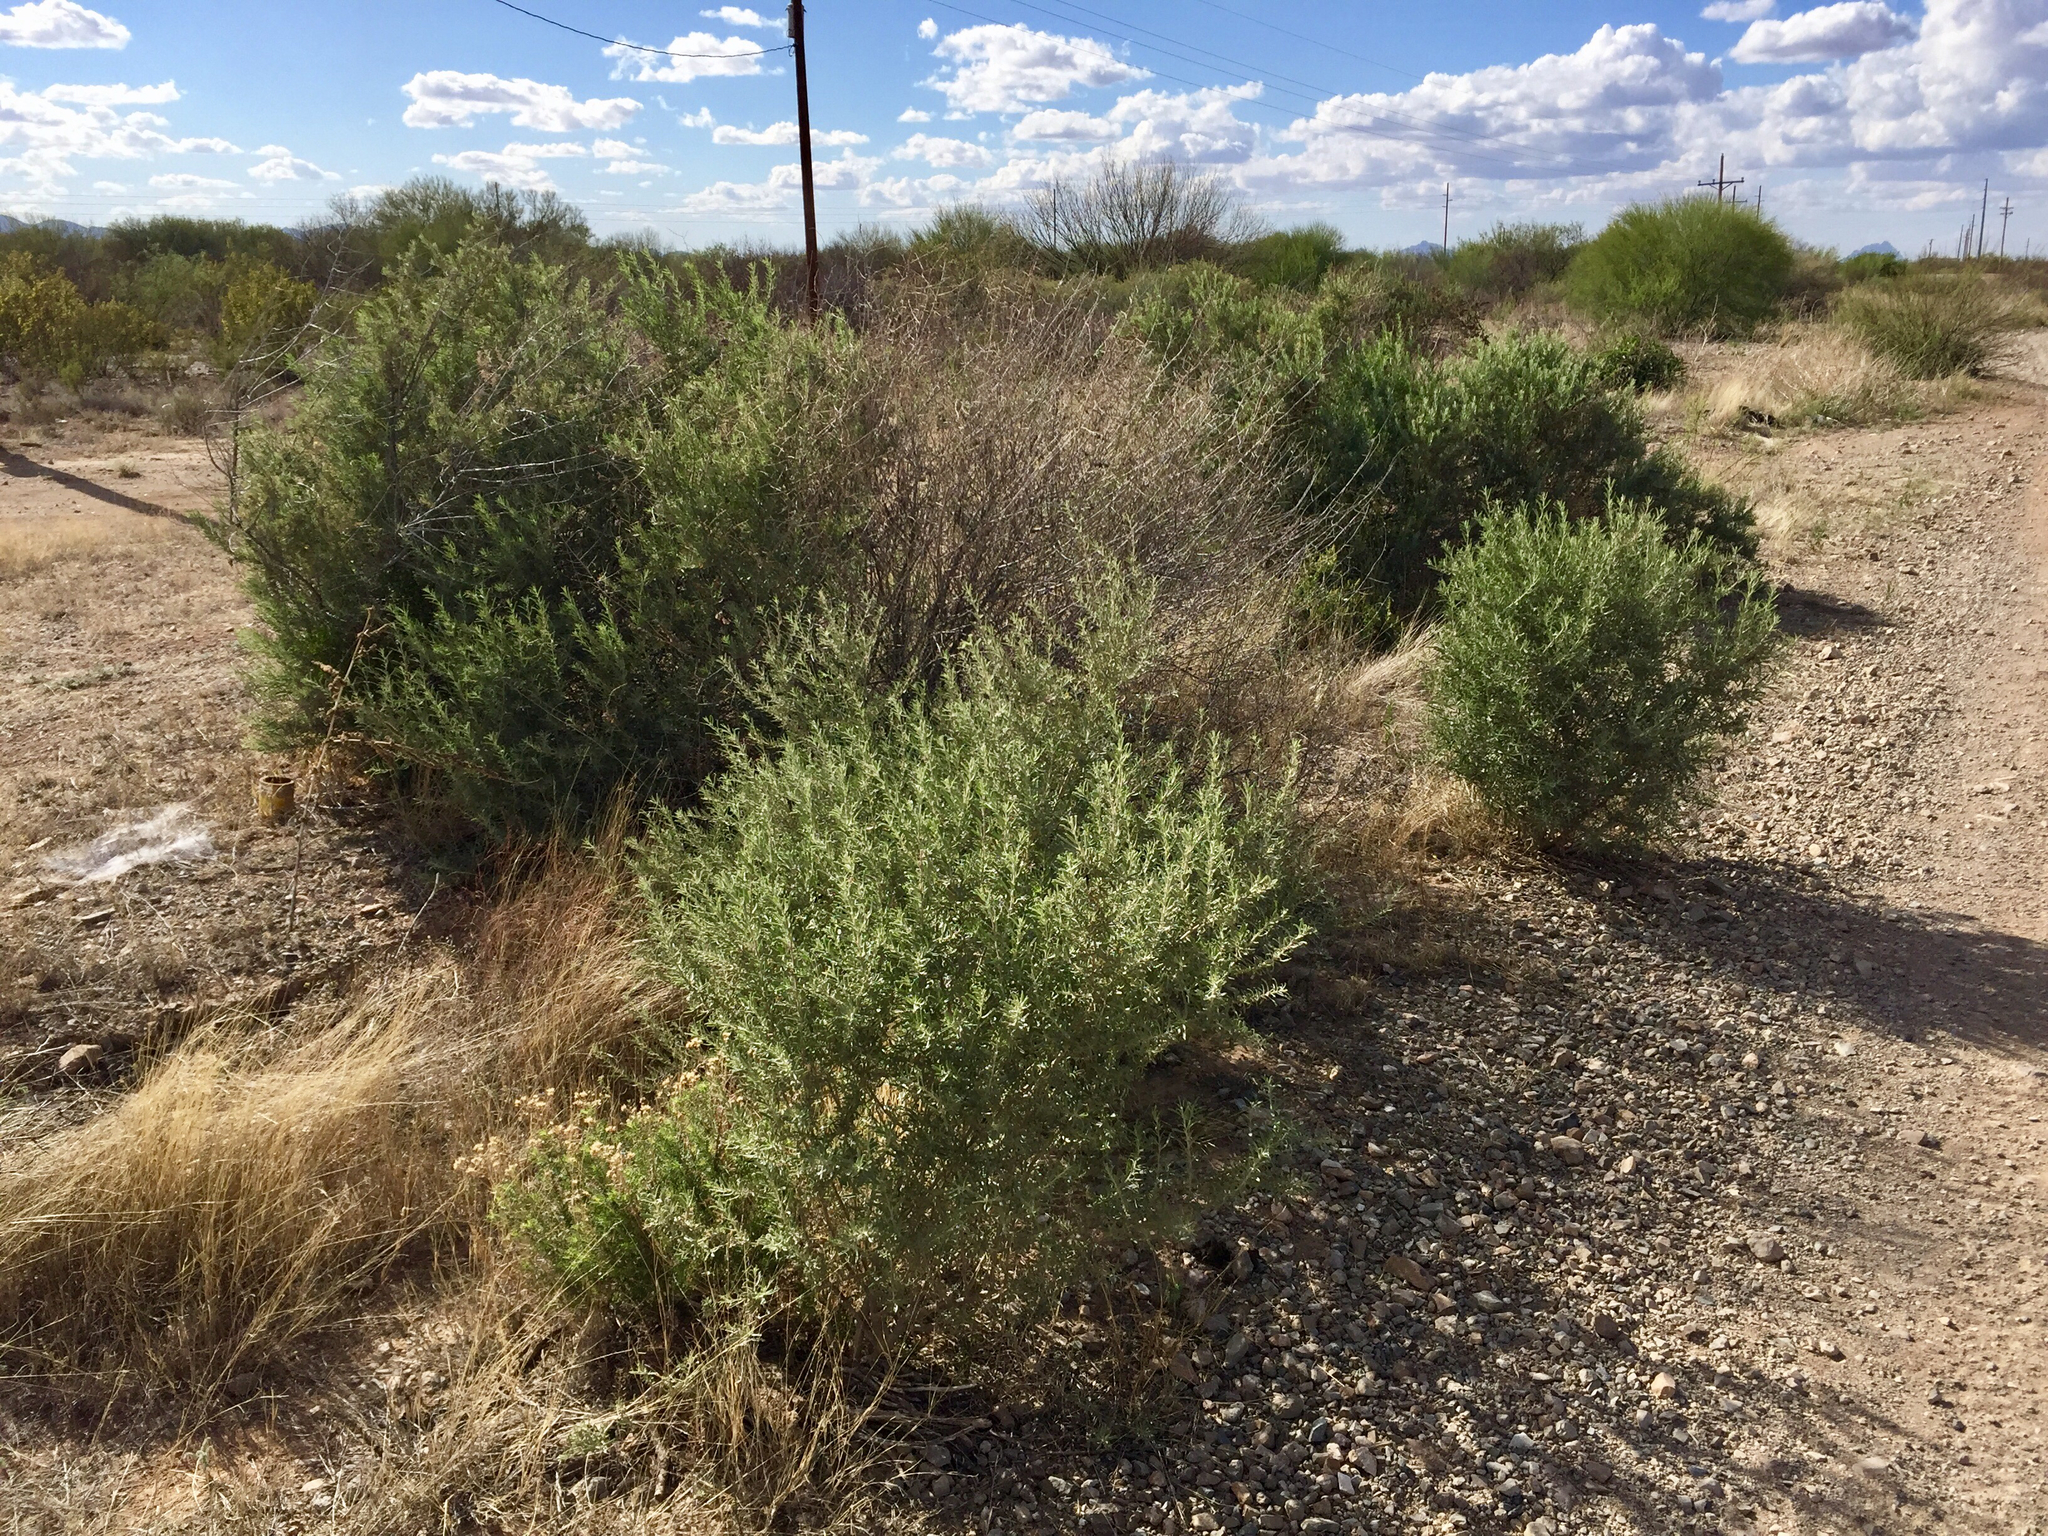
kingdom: Plantae
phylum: Tracheophyta
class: Magnoliopsida
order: Caryophyllales
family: Amaranthaceae
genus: Atriplex
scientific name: Atriplex canescens
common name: Four-wing saltbush
